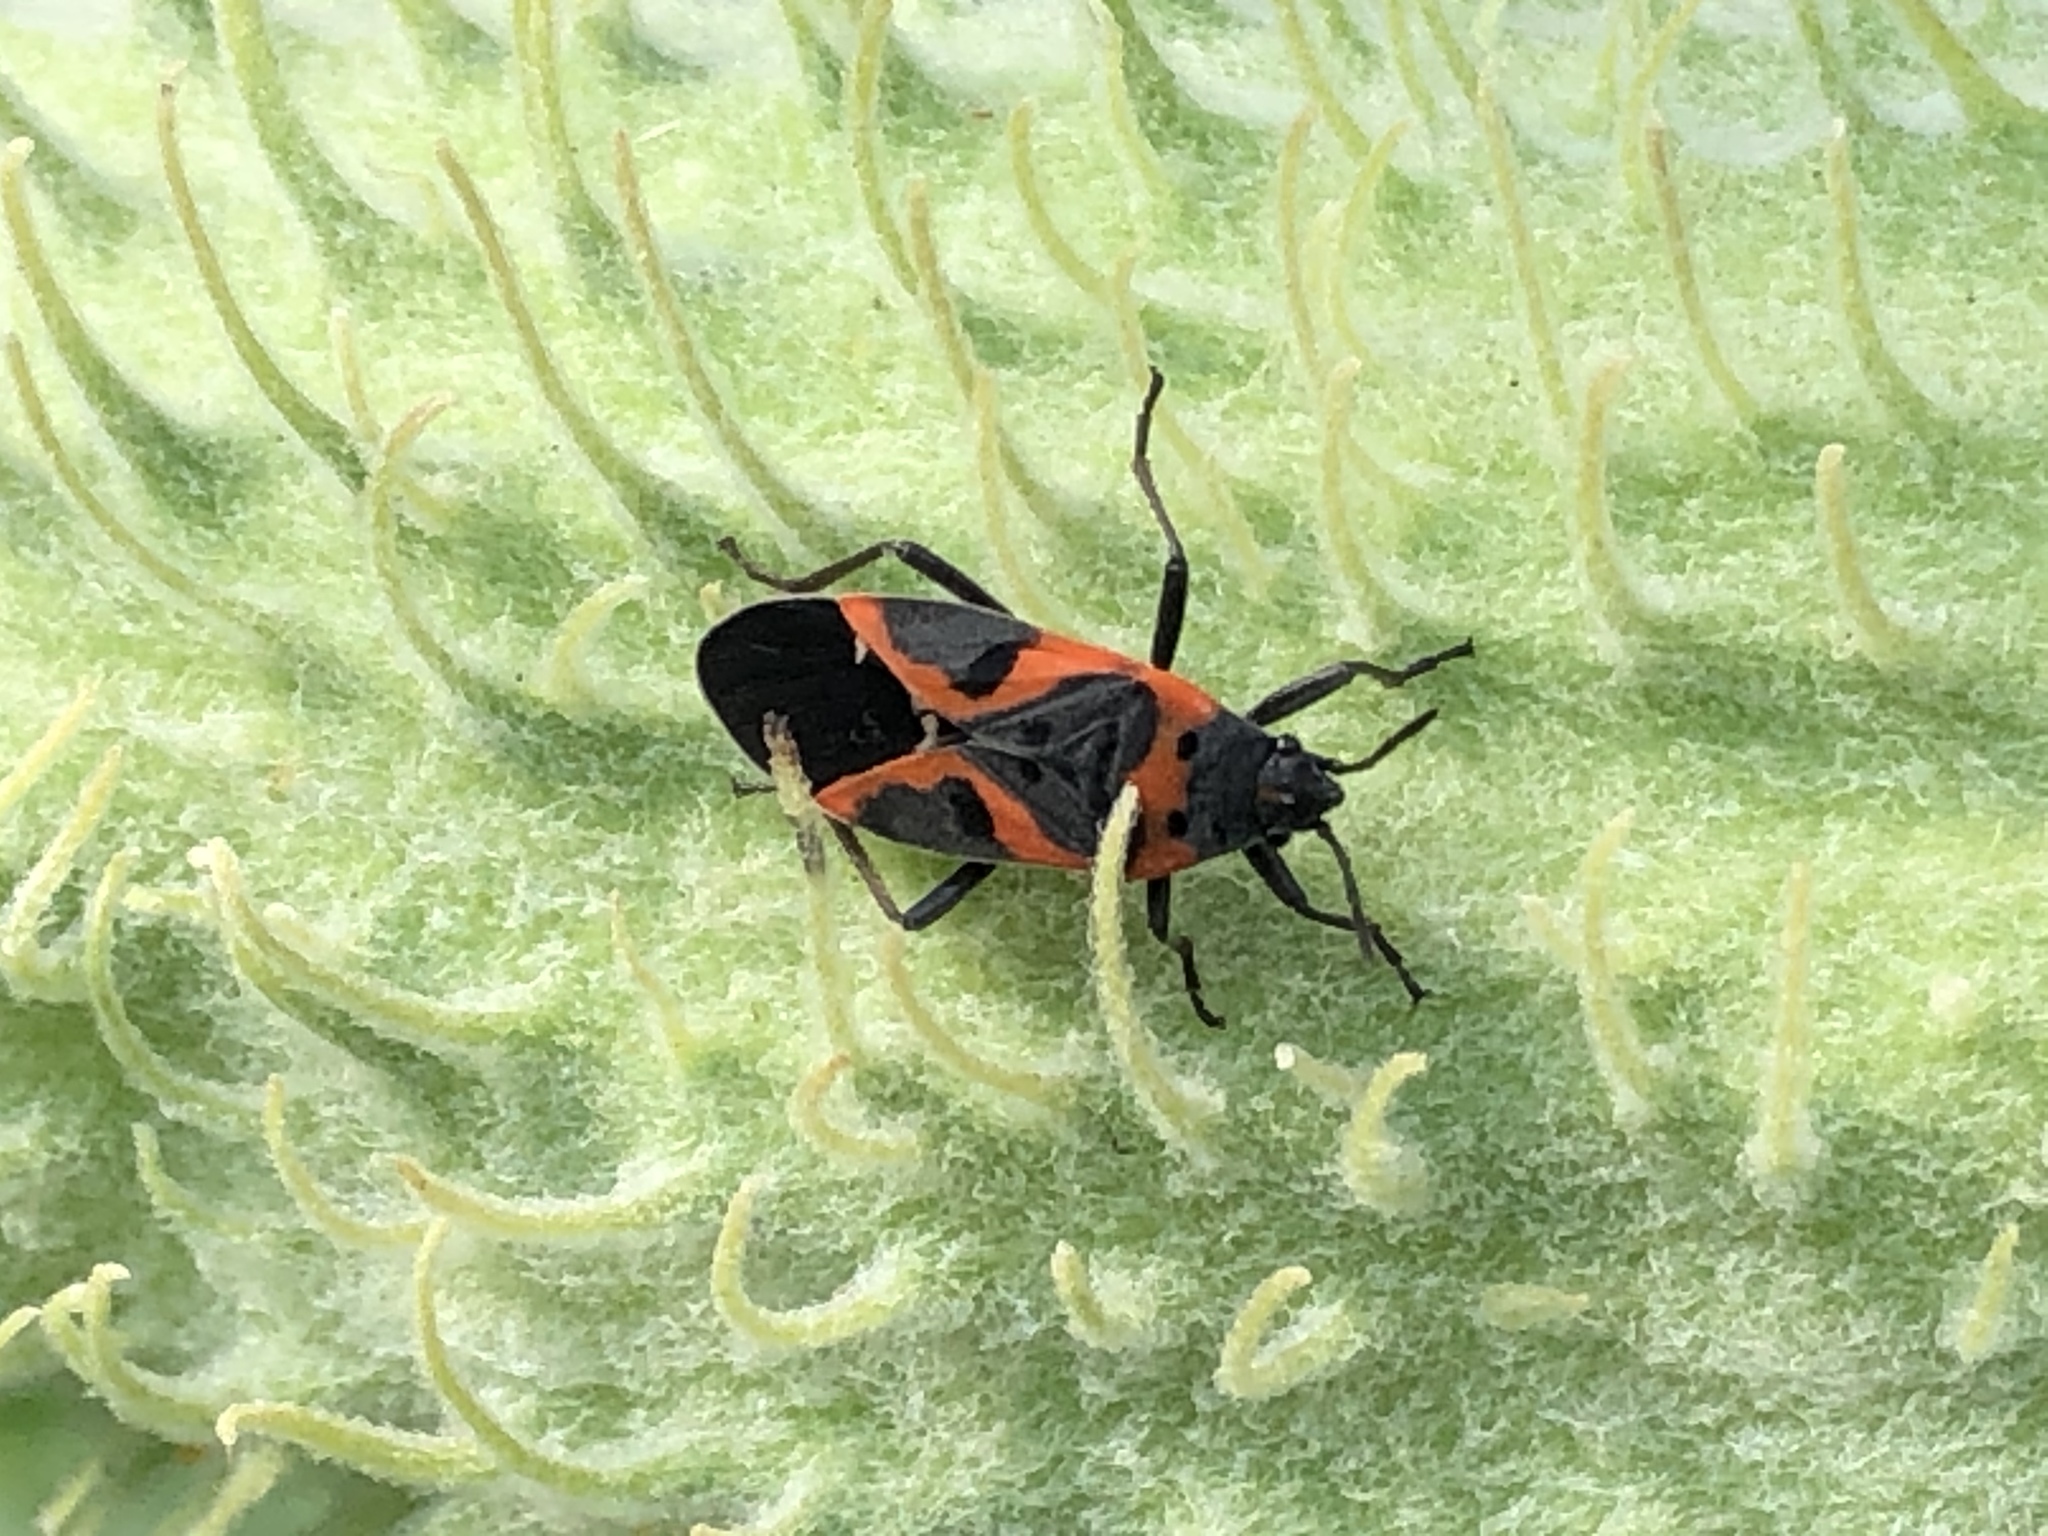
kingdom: Animalia
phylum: Arthropoda
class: Insecta
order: Hemiptera
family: Lygaeidae
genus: Lygaeus
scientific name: Lygaeus kalmii
